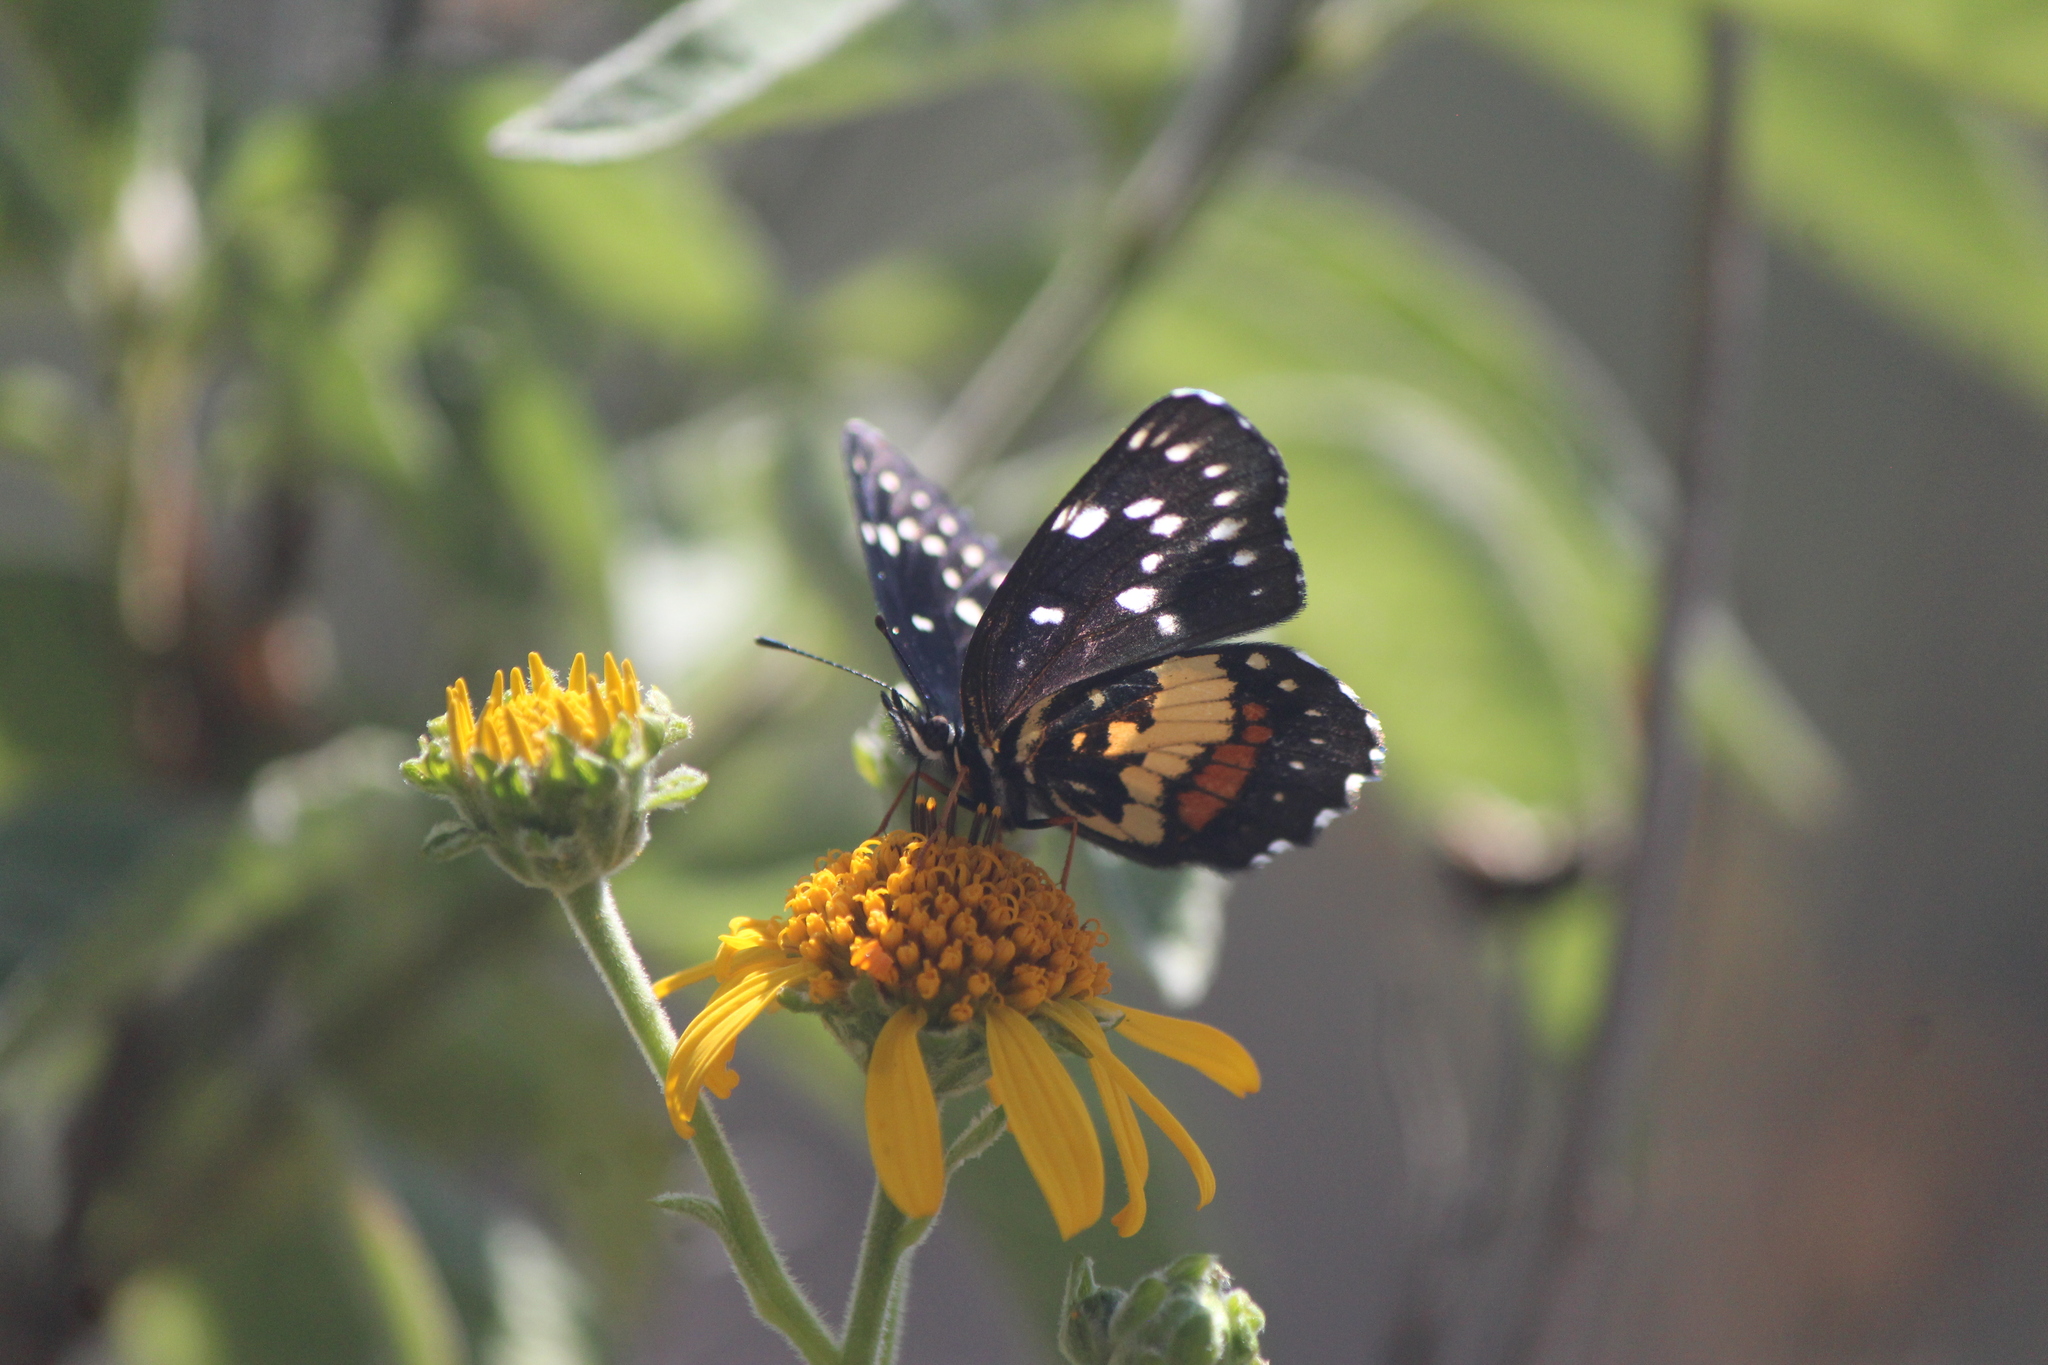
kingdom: Animalia
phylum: Arthropoda
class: Insecta
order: Lepidoptera
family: Nymphalidae
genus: Chlosyne
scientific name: Chlosyne rosita
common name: Rosita patch
